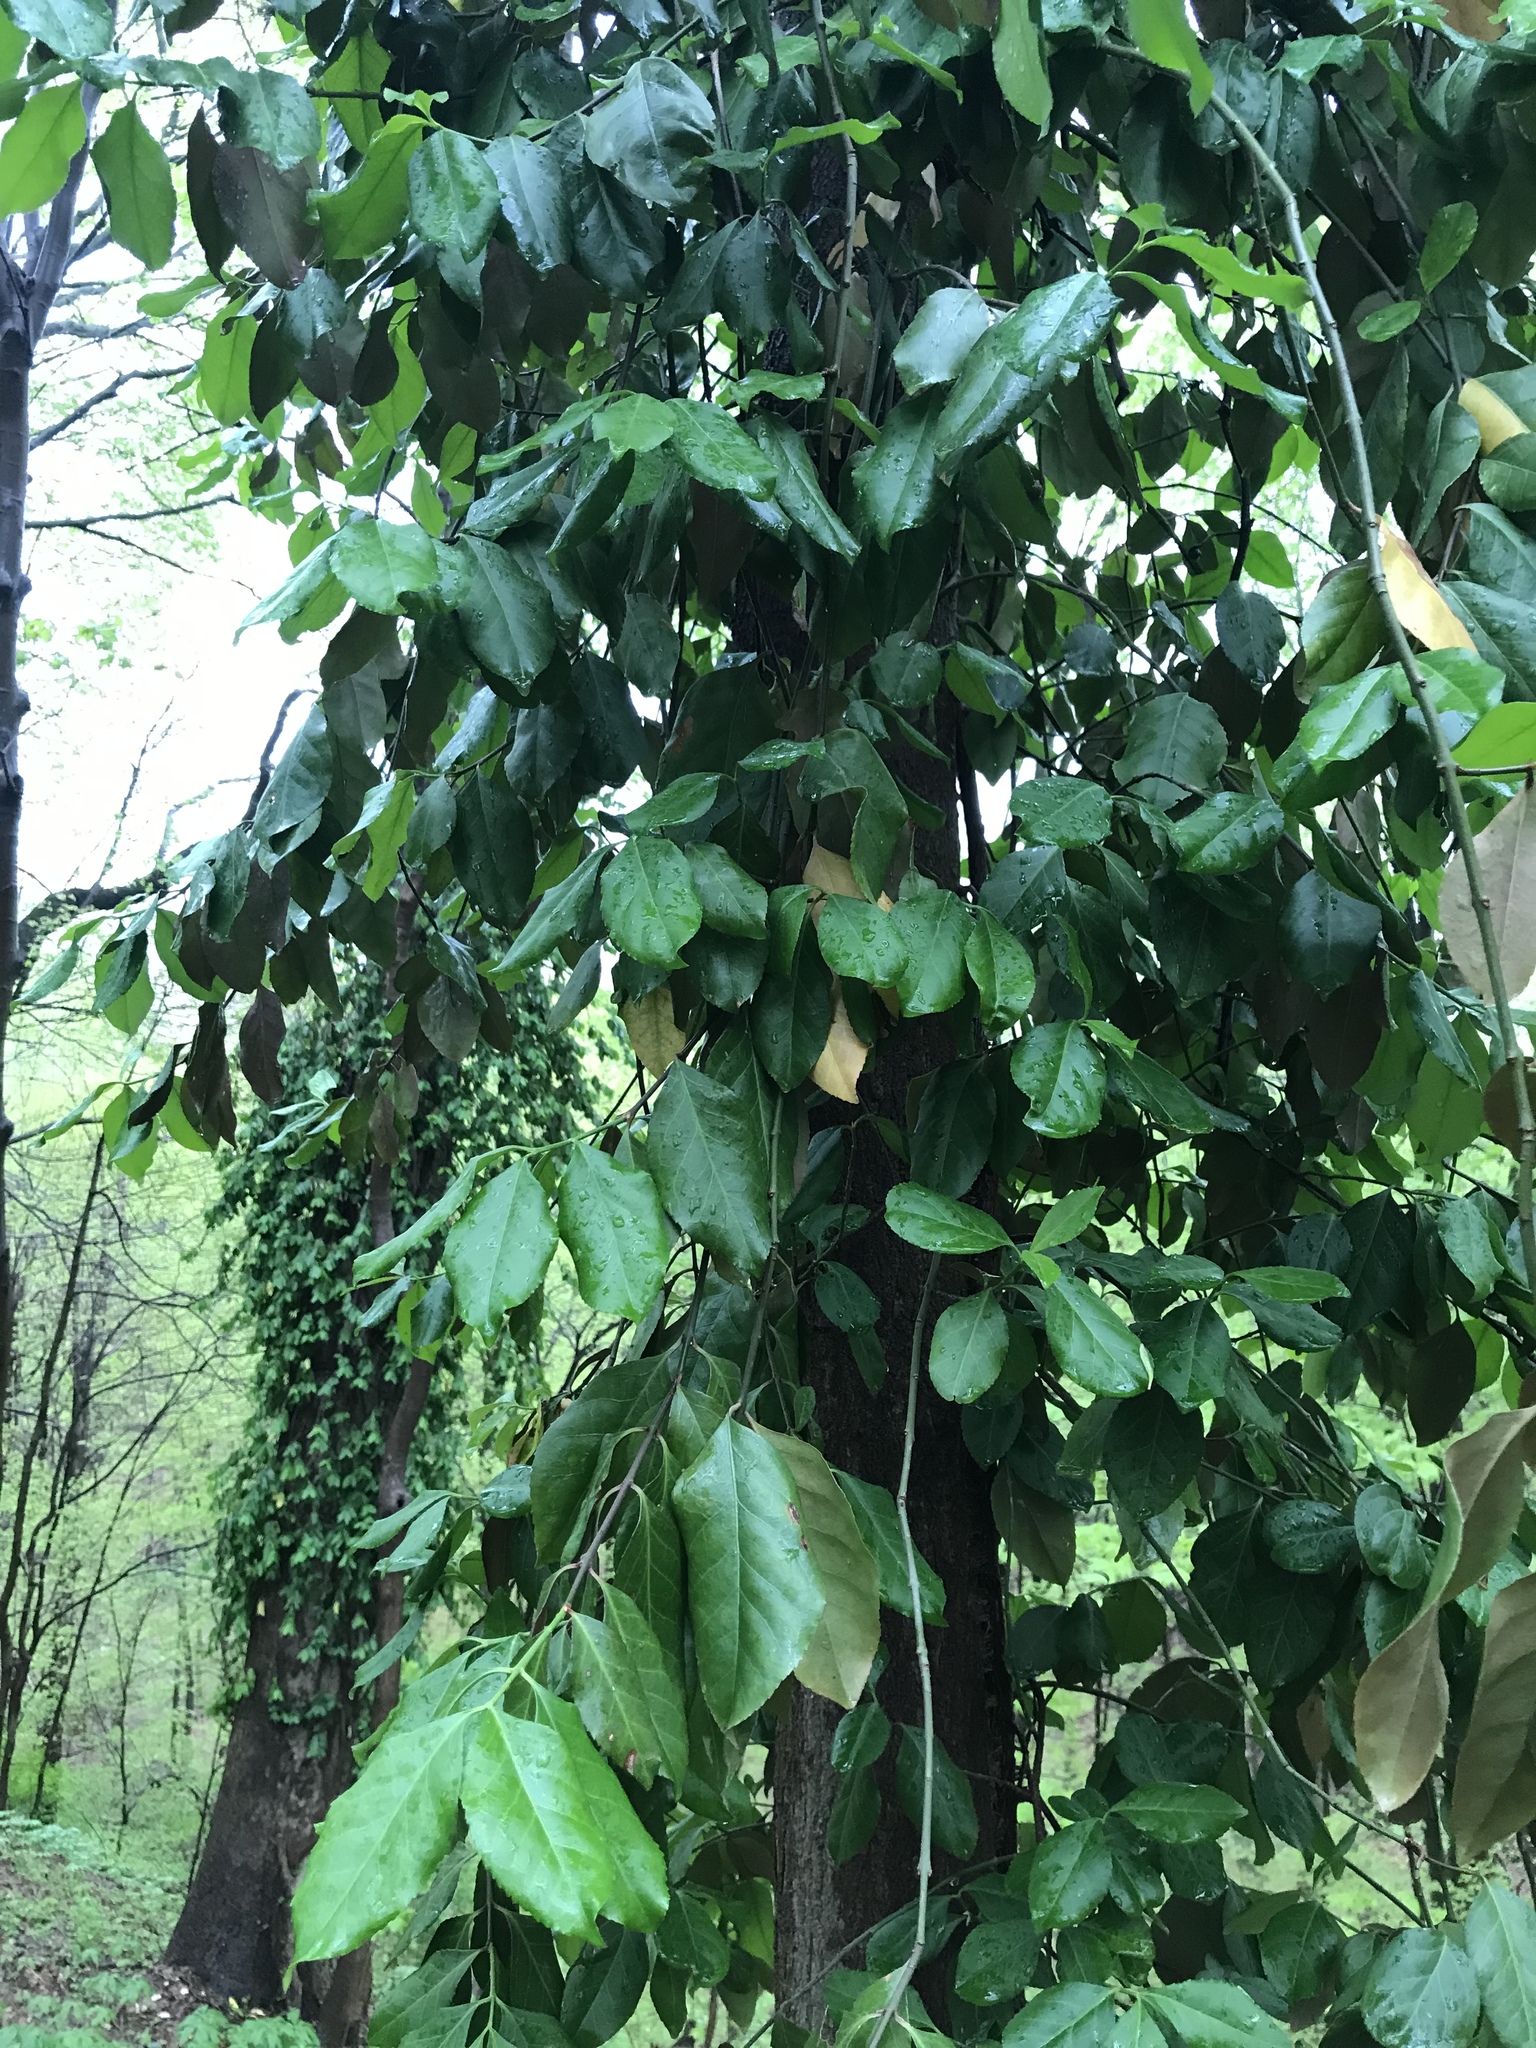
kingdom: Plantae
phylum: Tracheophyta
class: Magnoliopsida
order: Celastrales
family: Celastraceae
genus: Euonymus
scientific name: Euonymus fortunei
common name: Climbing euonymus
